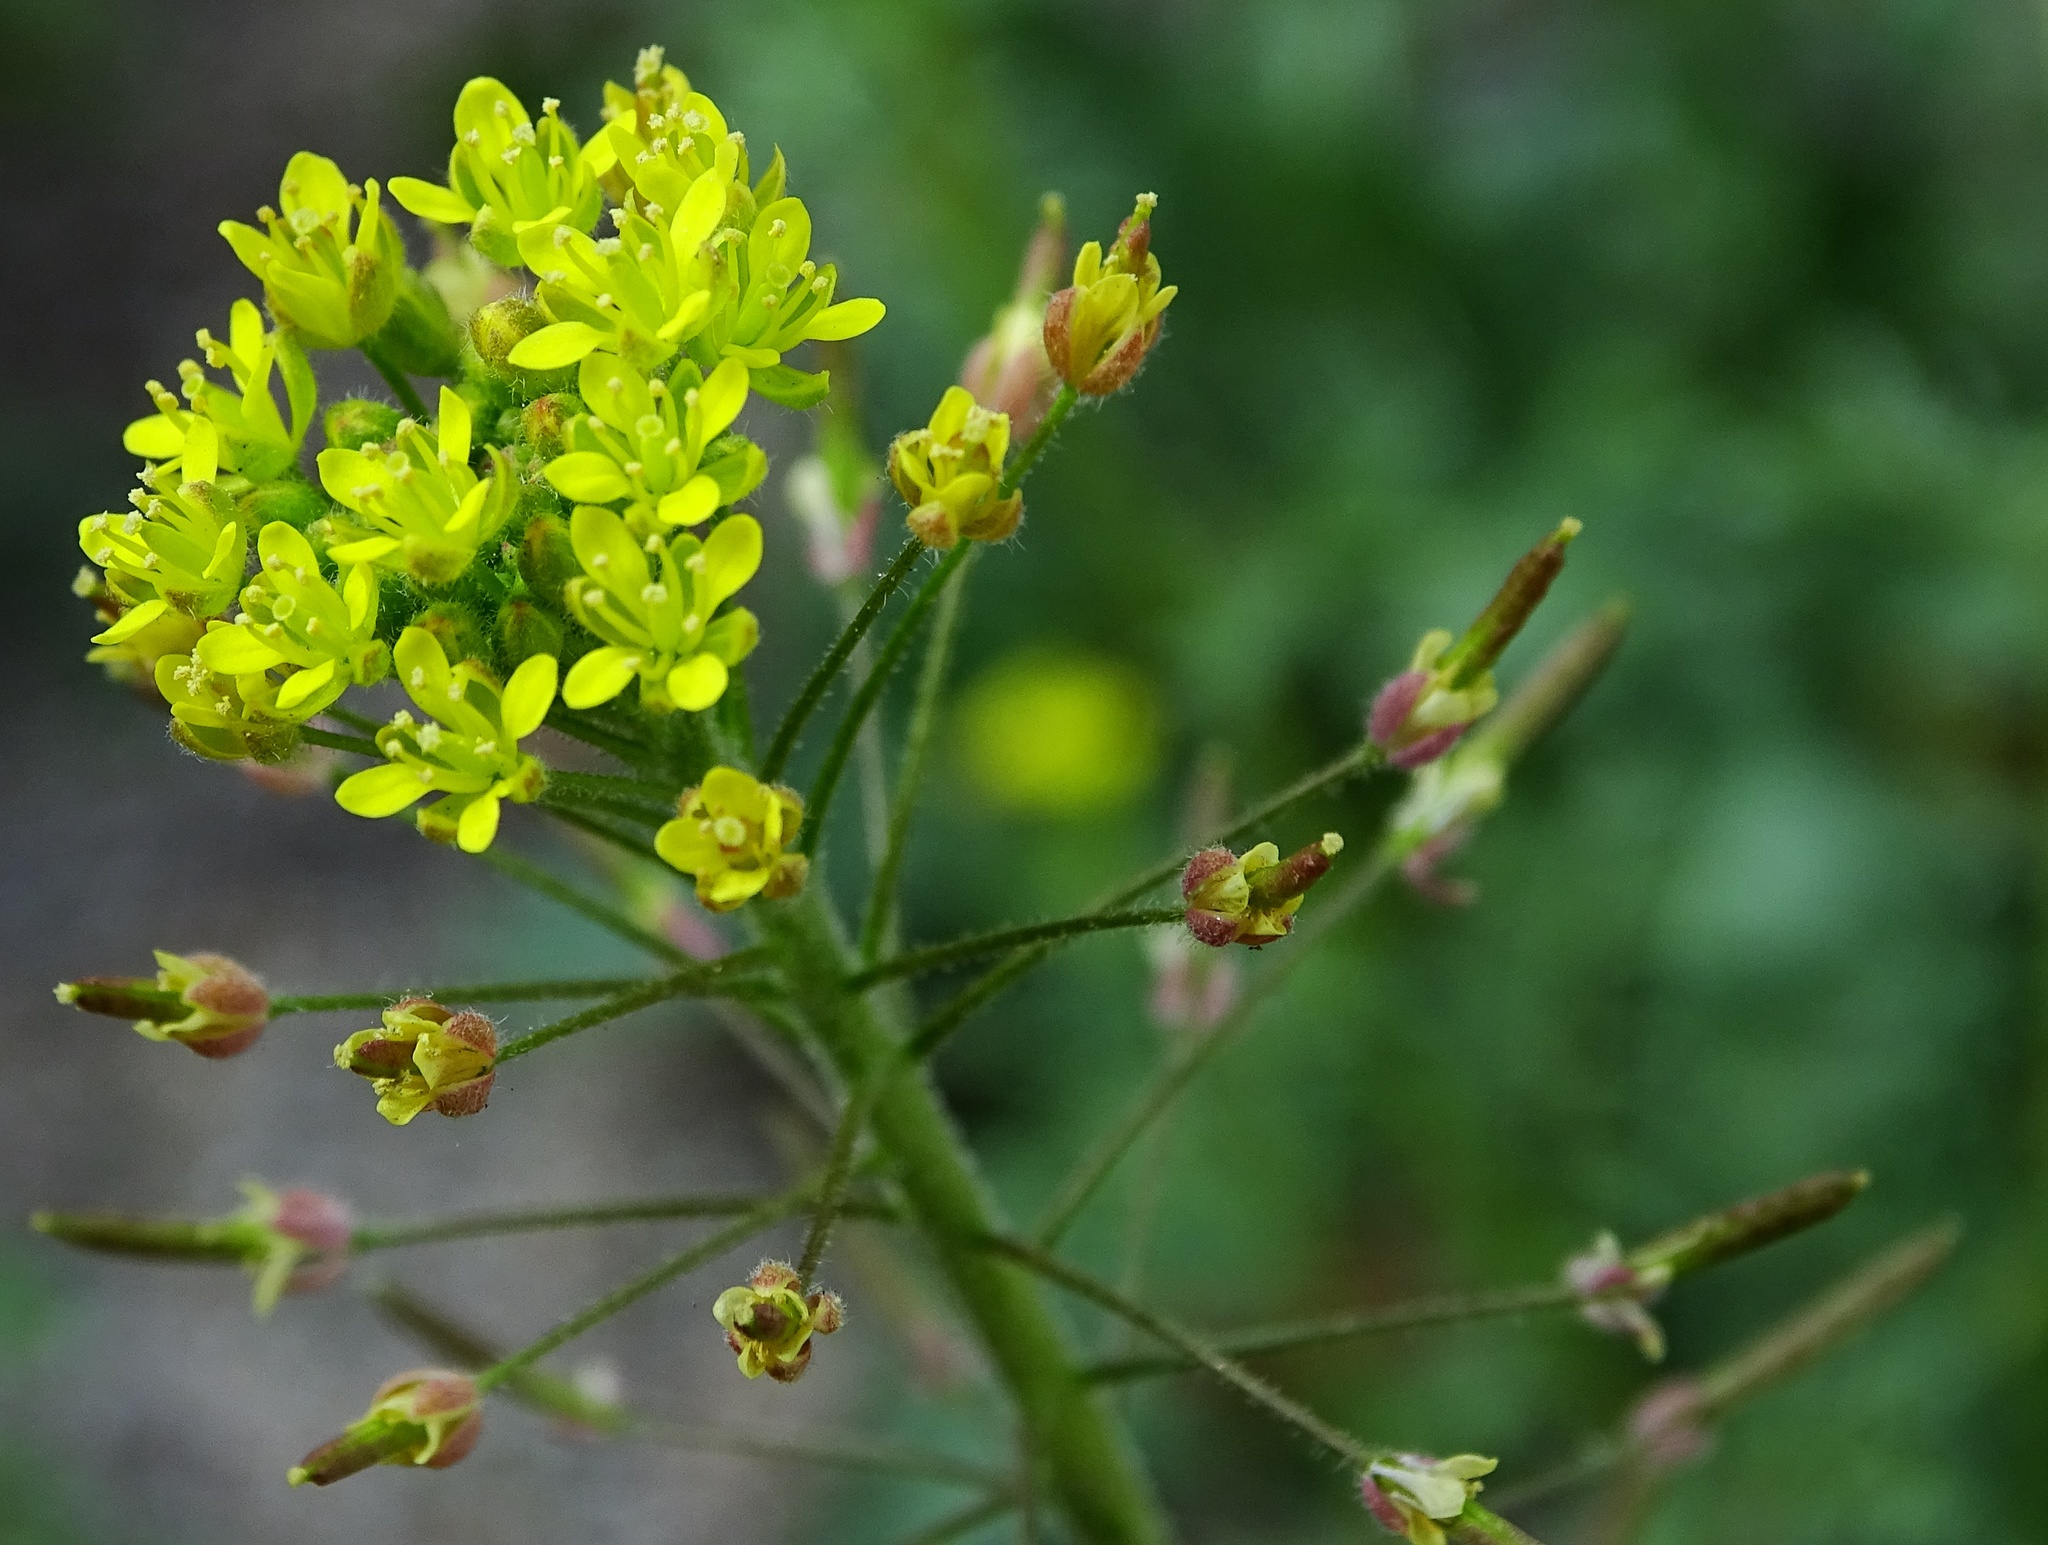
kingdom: Plantae
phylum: Tracheophyta
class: Magnoliopsida
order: Brassicales
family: Brassicaceae
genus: Descurainia
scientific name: Descurainia pinnata
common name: Western tansy mustard
